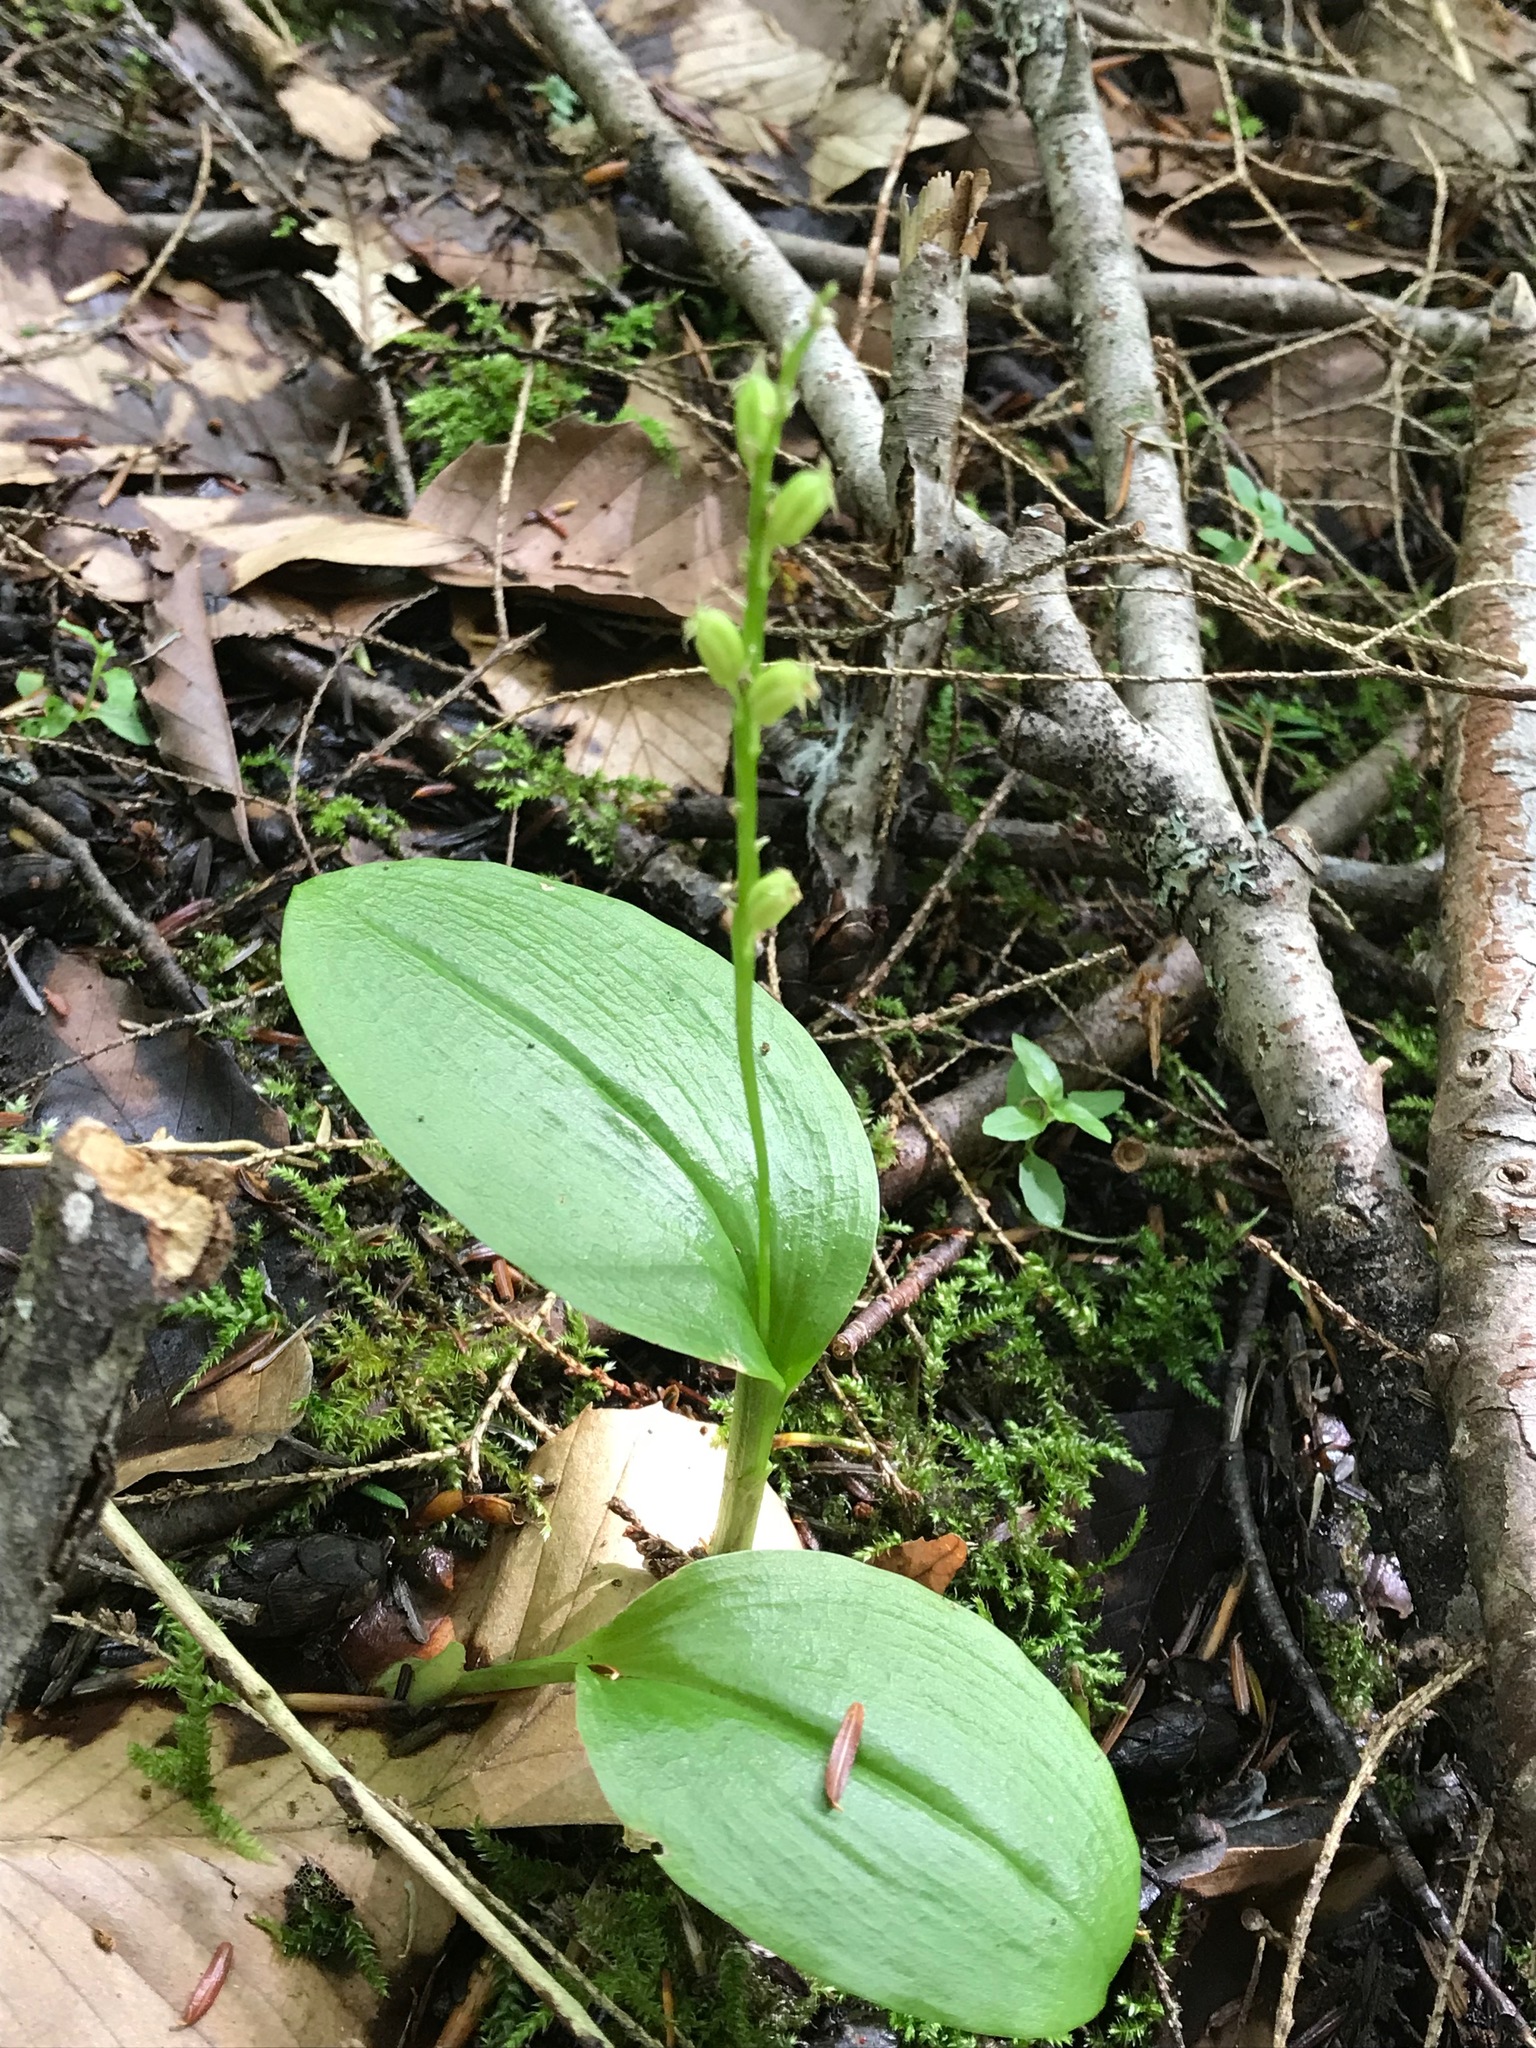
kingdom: Plantae
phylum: Tracheophyta
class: Liliopsida
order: Asparagales
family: Orchidaceae
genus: Malaxis
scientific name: Malaxis monophyllos
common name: White adder's-mouth
